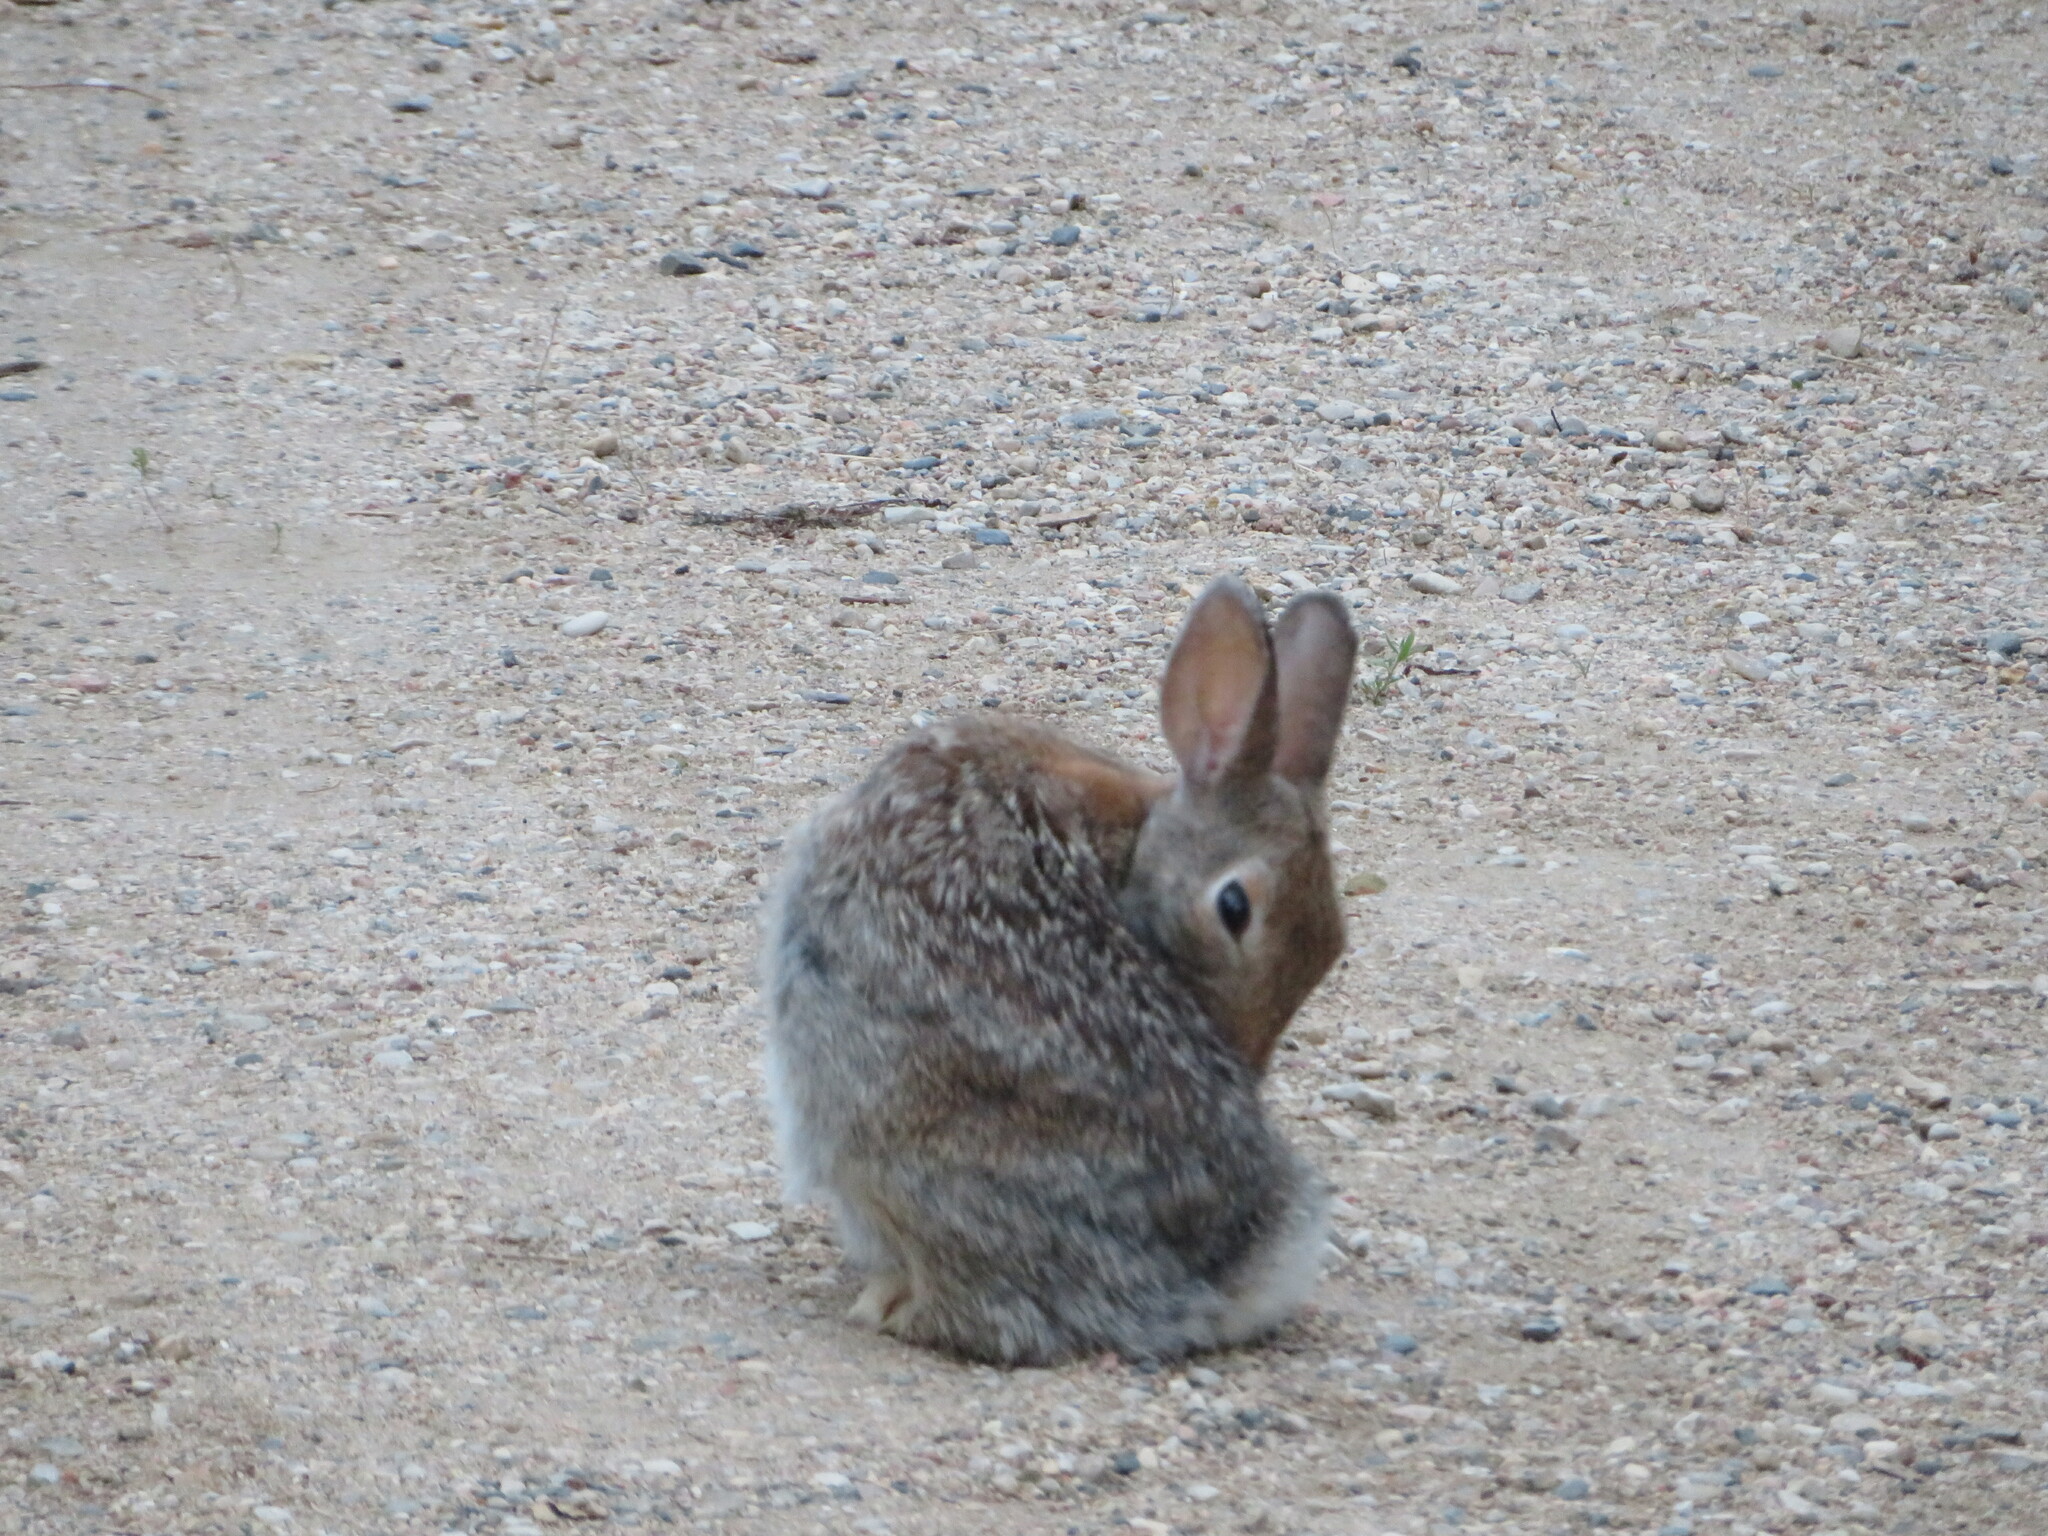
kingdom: Animalia
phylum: Chordata
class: Mammalia
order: Lagomorpha
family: Leporidae
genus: Sylvilagus
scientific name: Sylvilagus nuttallii
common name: Mountain cottontail
